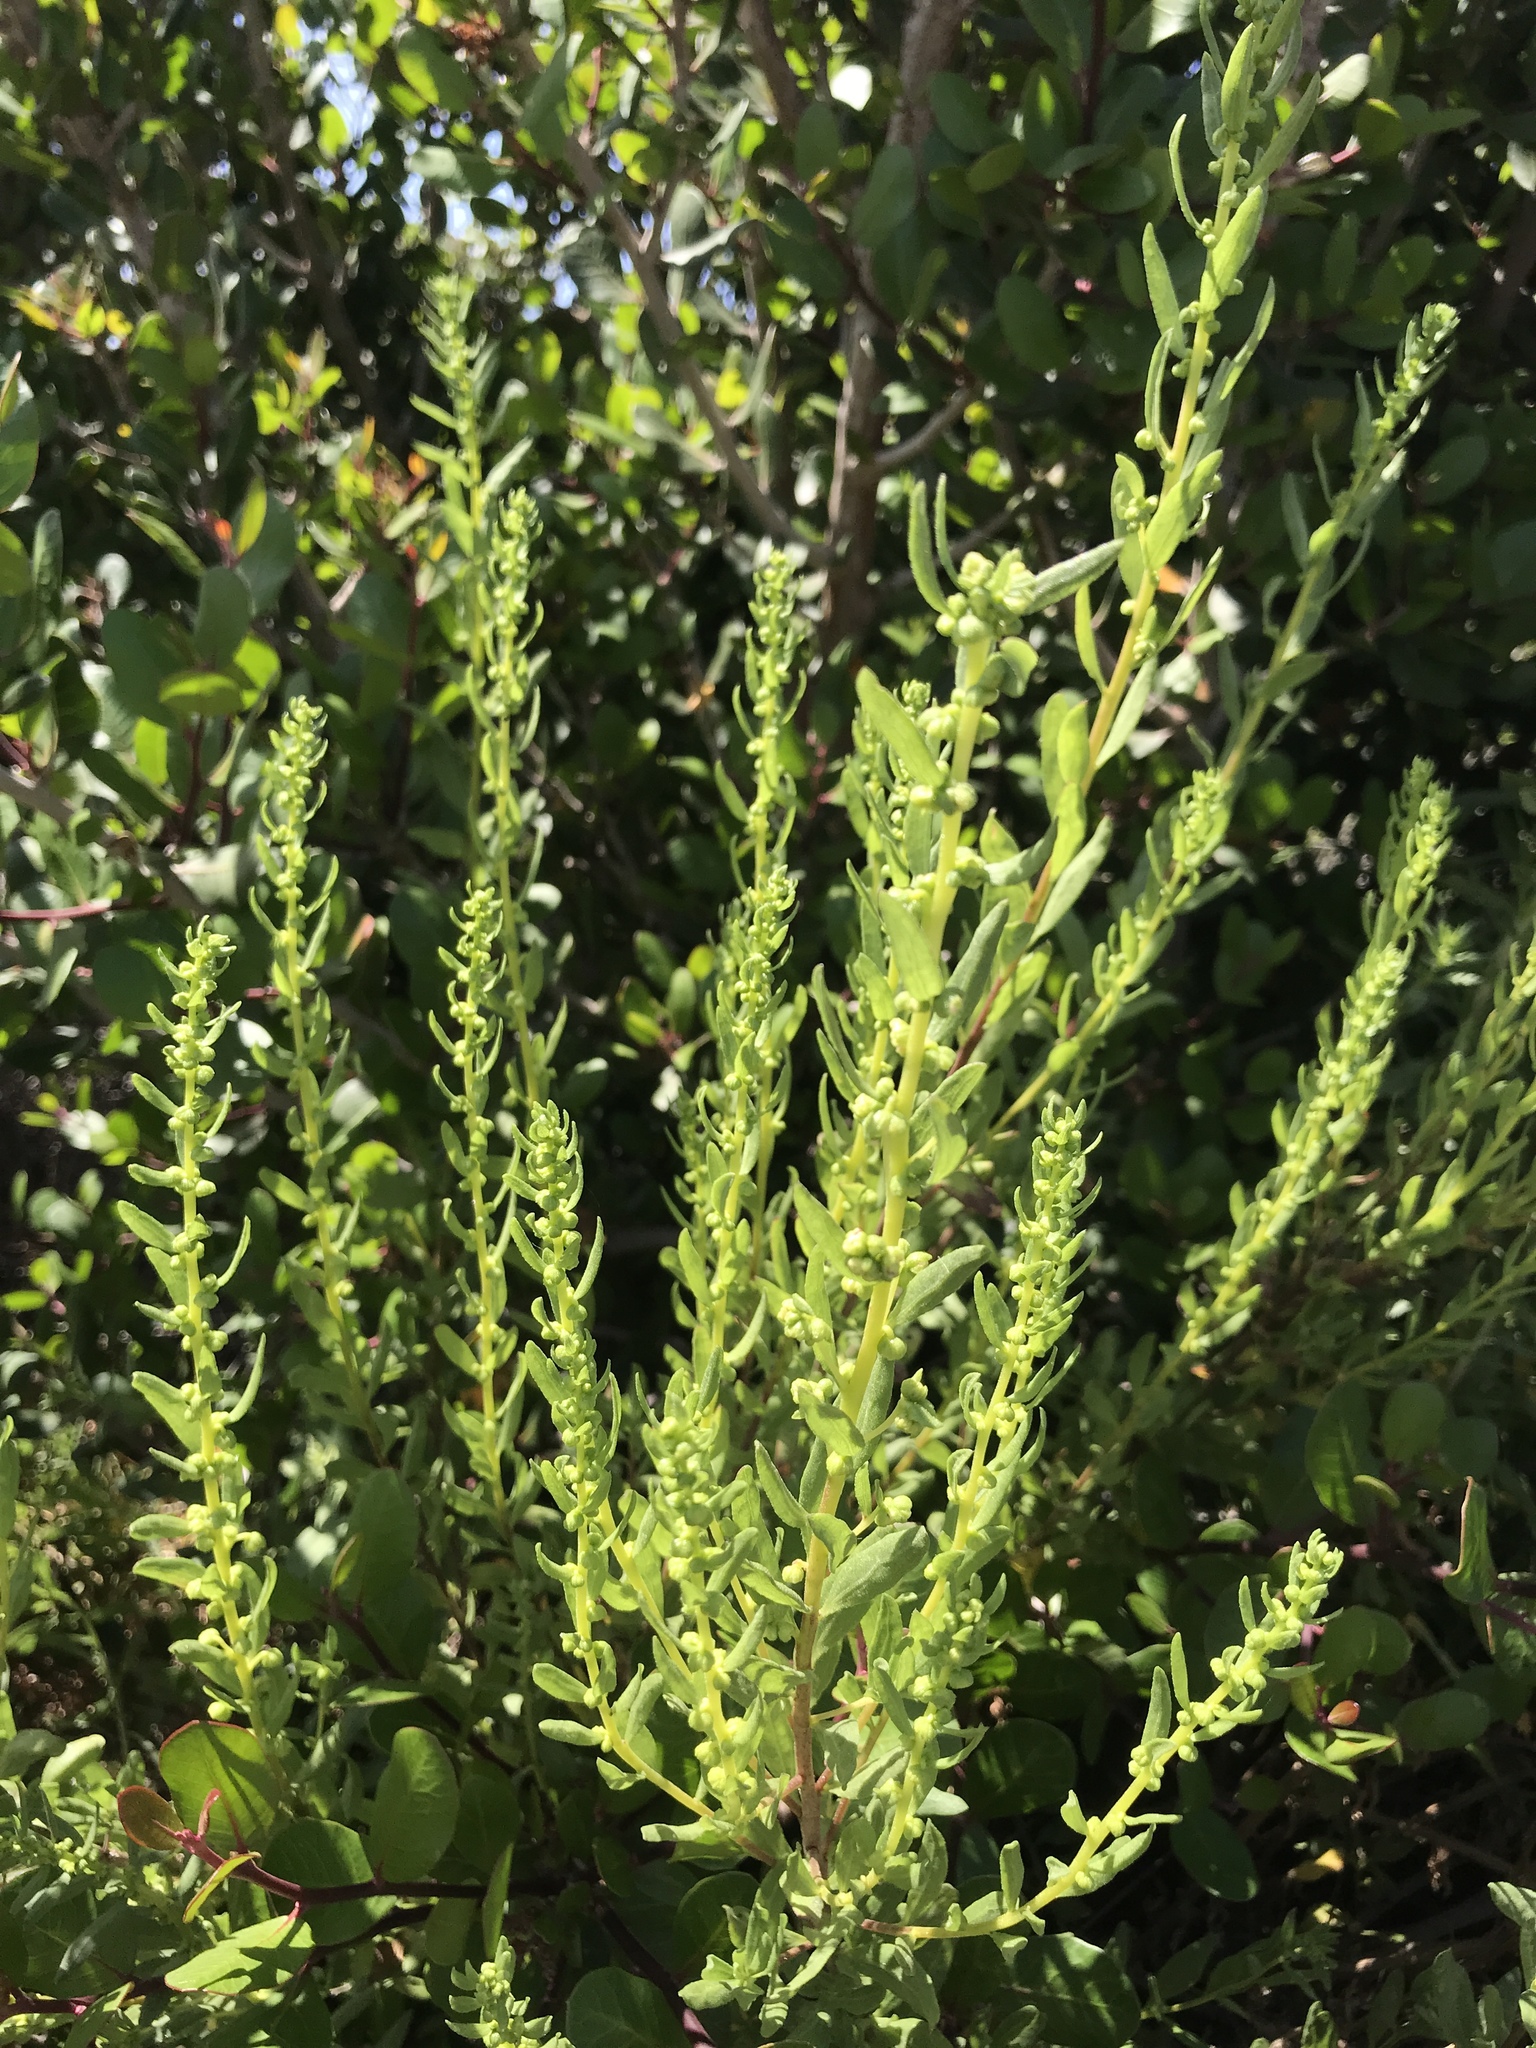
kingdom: Plantae
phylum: Tracheophyta
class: Magnoliopsida
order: Asterales
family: Asteraceae
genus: Iva
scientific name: Iva hayesiana
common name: San diego marsh-elder
